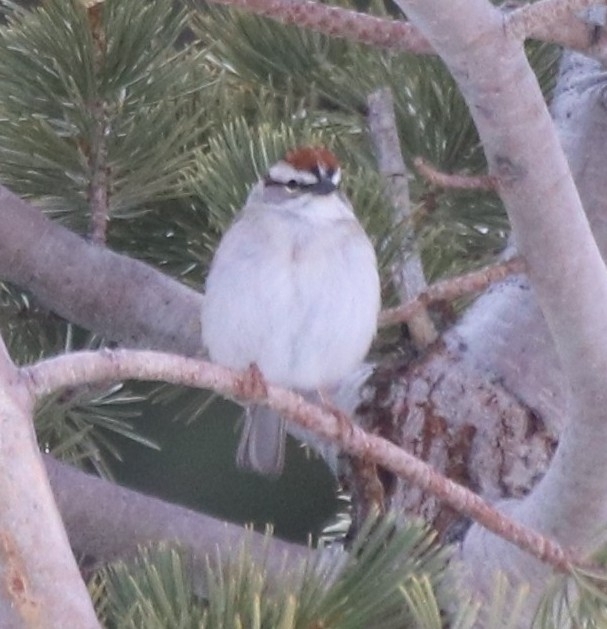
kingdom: Animalia
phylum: Chordata
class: Aves
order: Passeriformes
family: Passerellidae
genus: Spizella
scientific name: Spizella passerina
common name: Chipping sparrow
